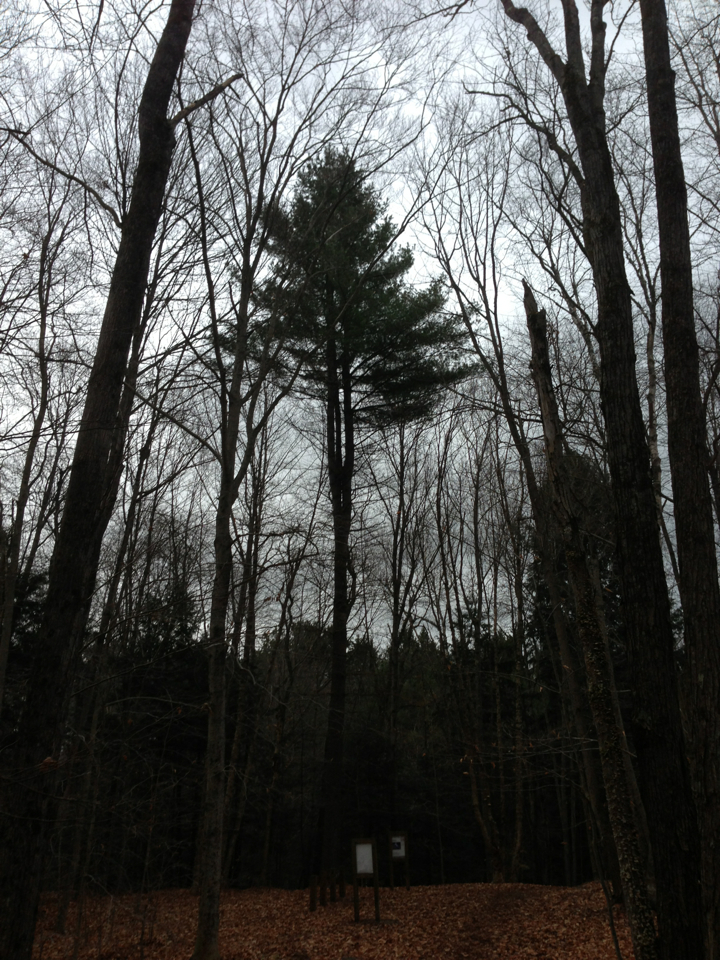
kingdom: Plantae
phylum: Tracheophyta
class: Pinopsida
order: Pinales
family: Pinaceae
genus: Pinus
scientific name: Pinus strobus
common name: Weymouth pine
